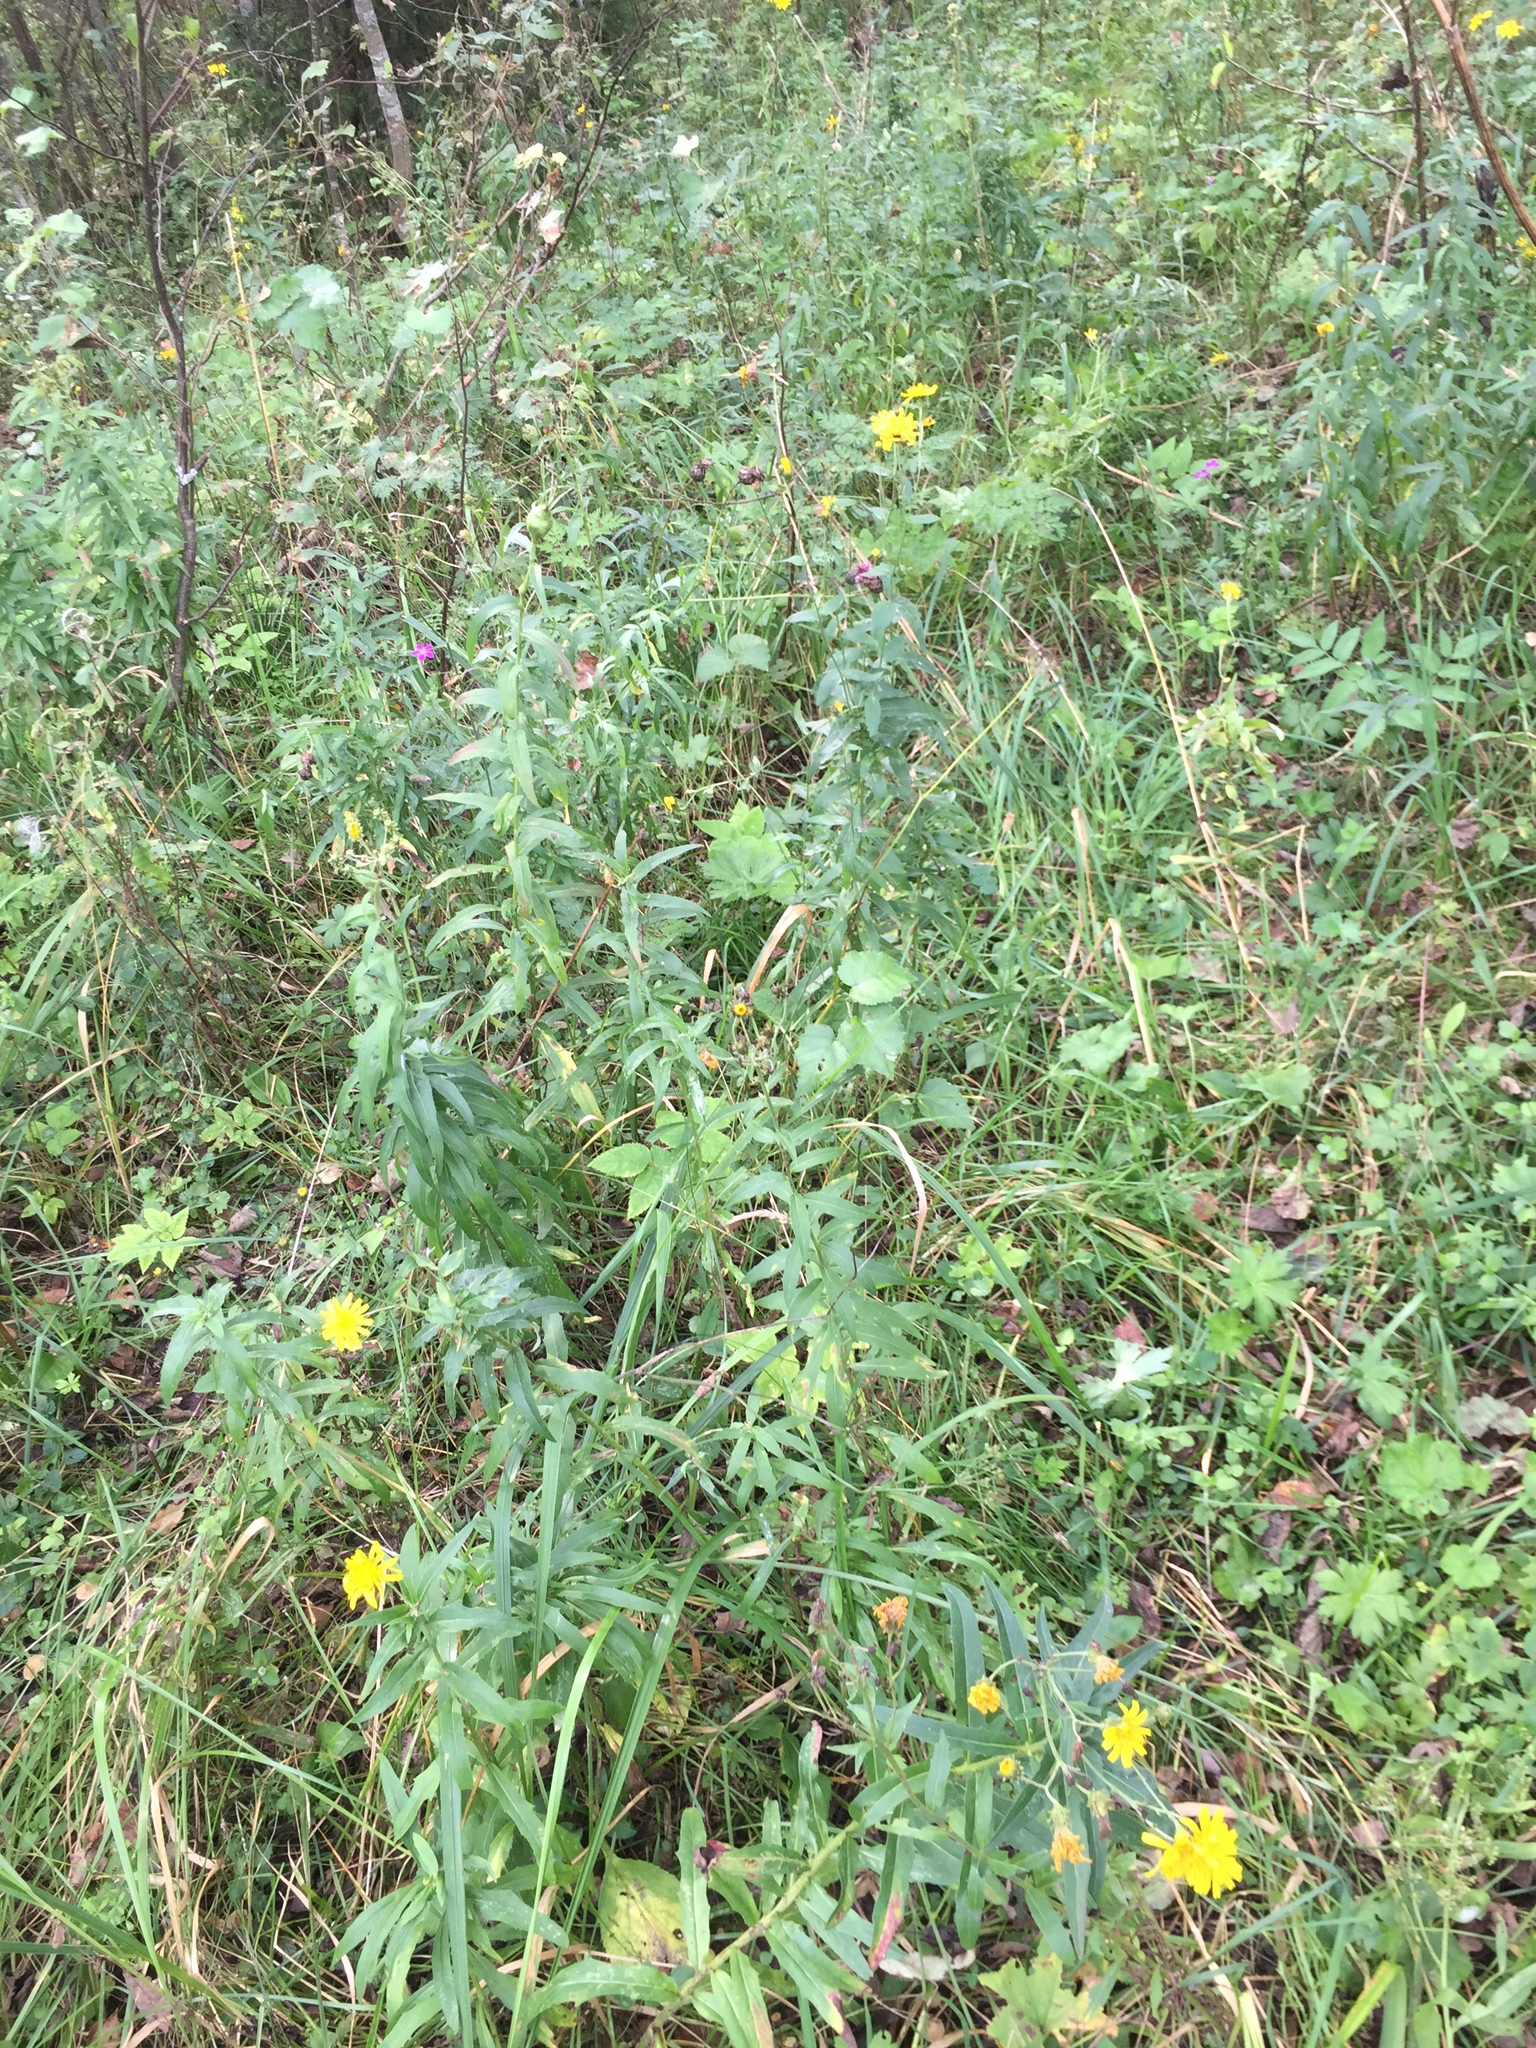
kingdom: Plantae
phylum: Tracheophyta
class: Magnoliopsida
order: Asterales
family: Asteraceae
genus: Hieracium
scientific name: Hieracium umbellatum
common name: Northern hawkweed
